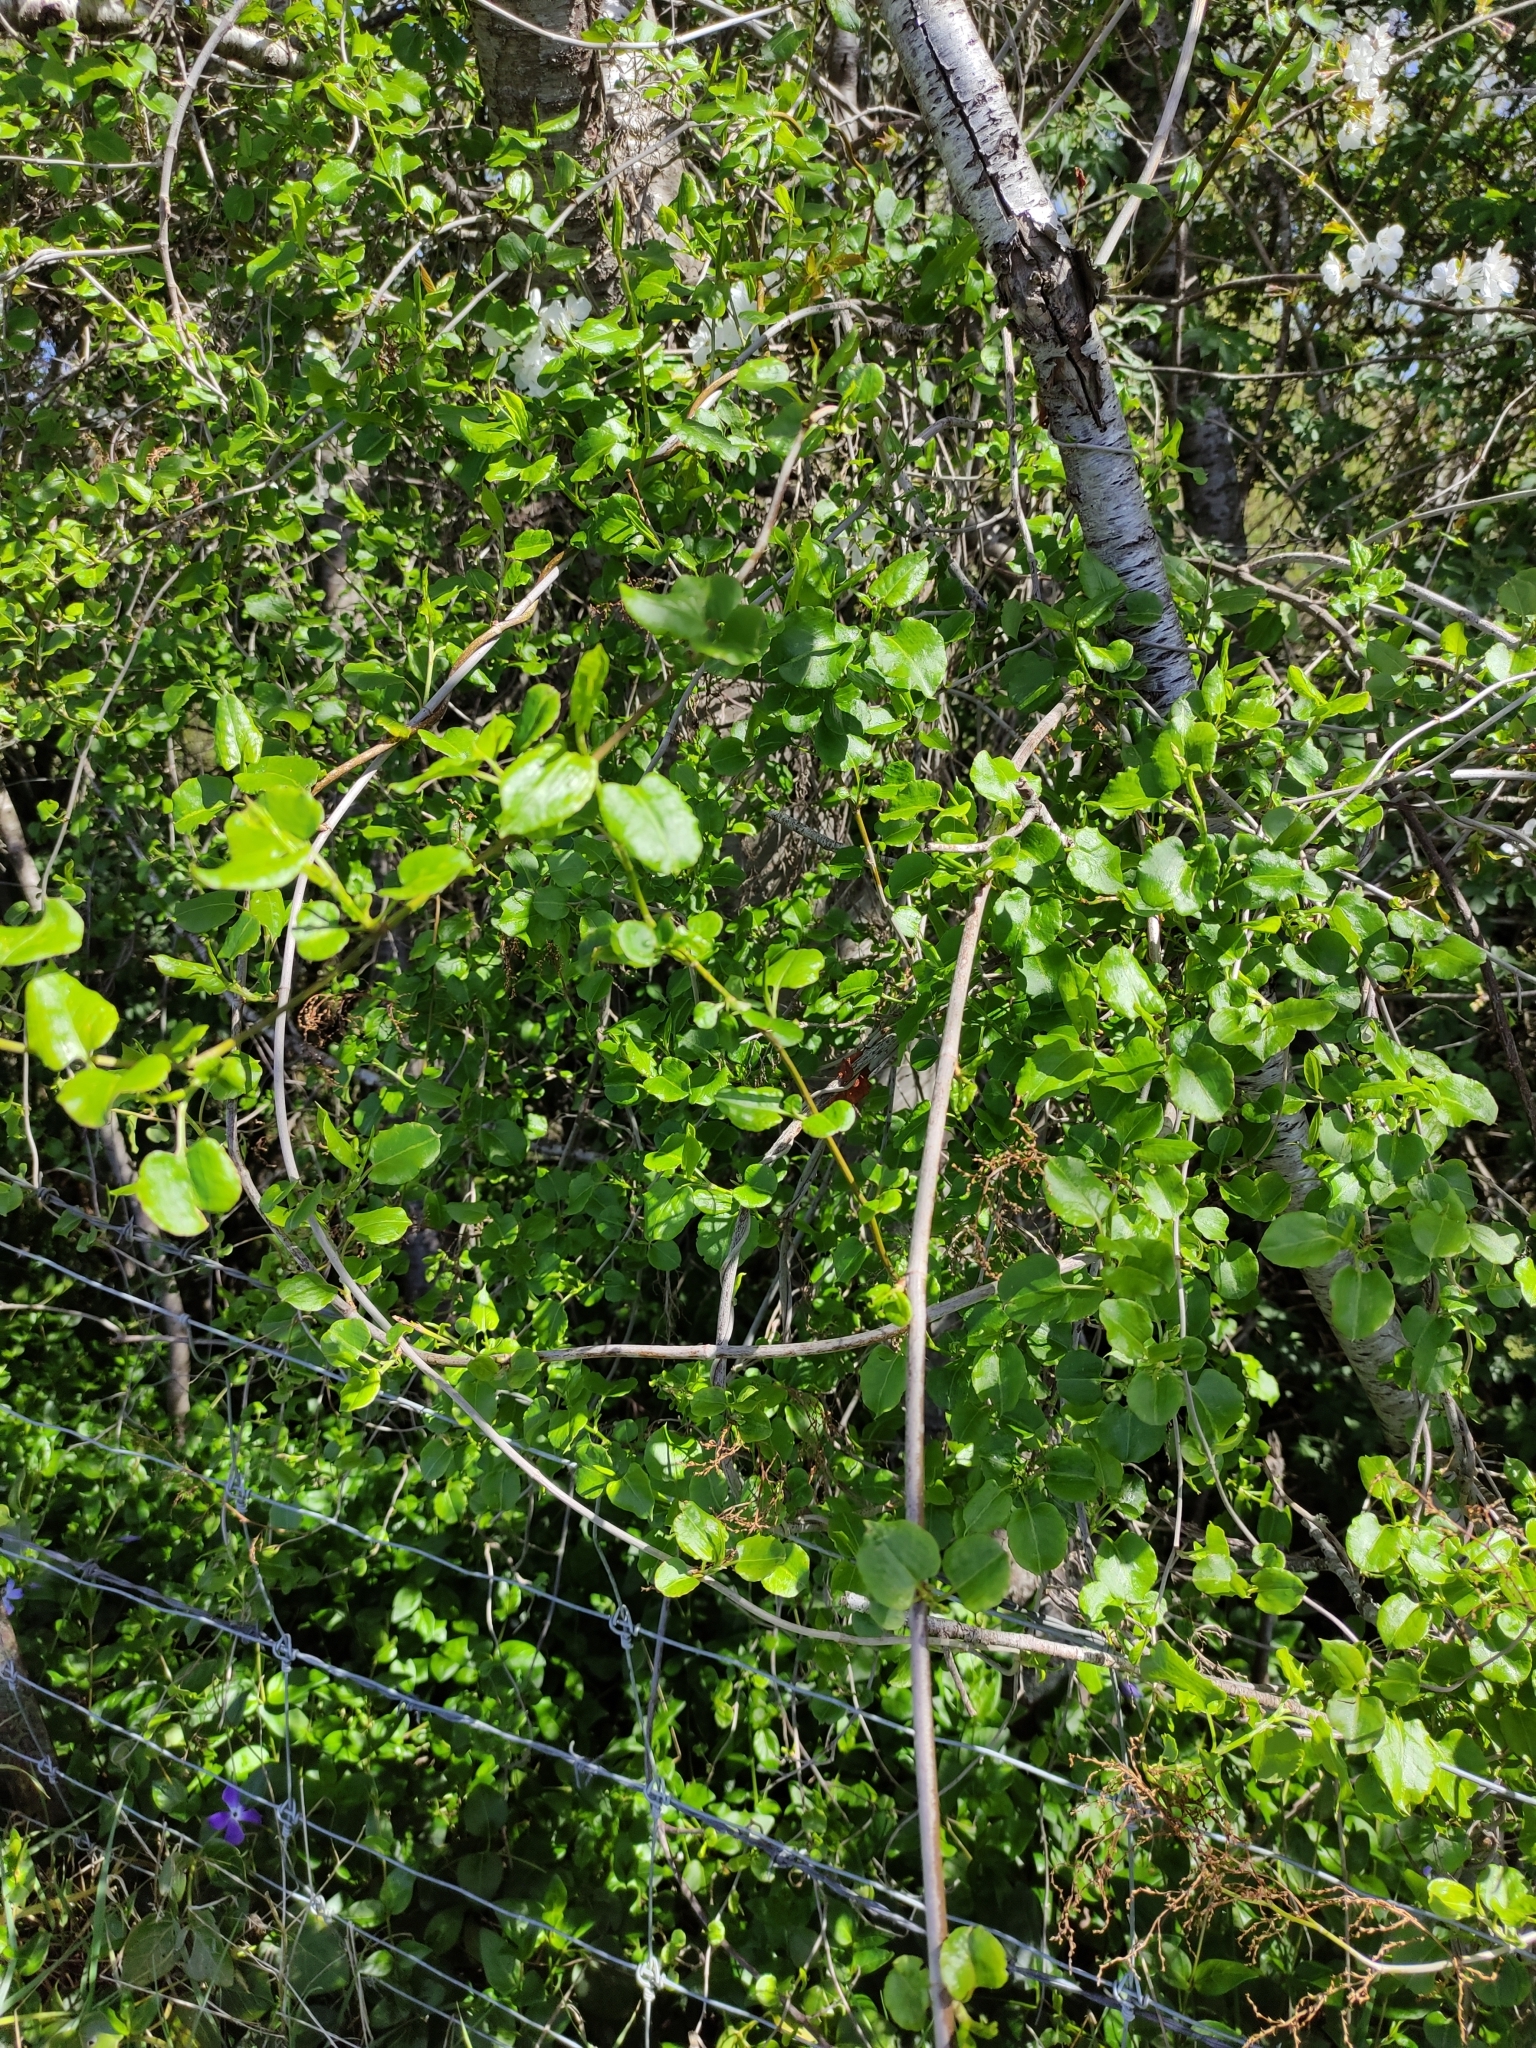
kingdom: Plantae
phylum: Tracheophyta
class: Magnoliopsida
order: Caryophyllales
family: Polygonaceae
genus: Muehlenbeckia
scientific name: Muehlenbeckia australis
